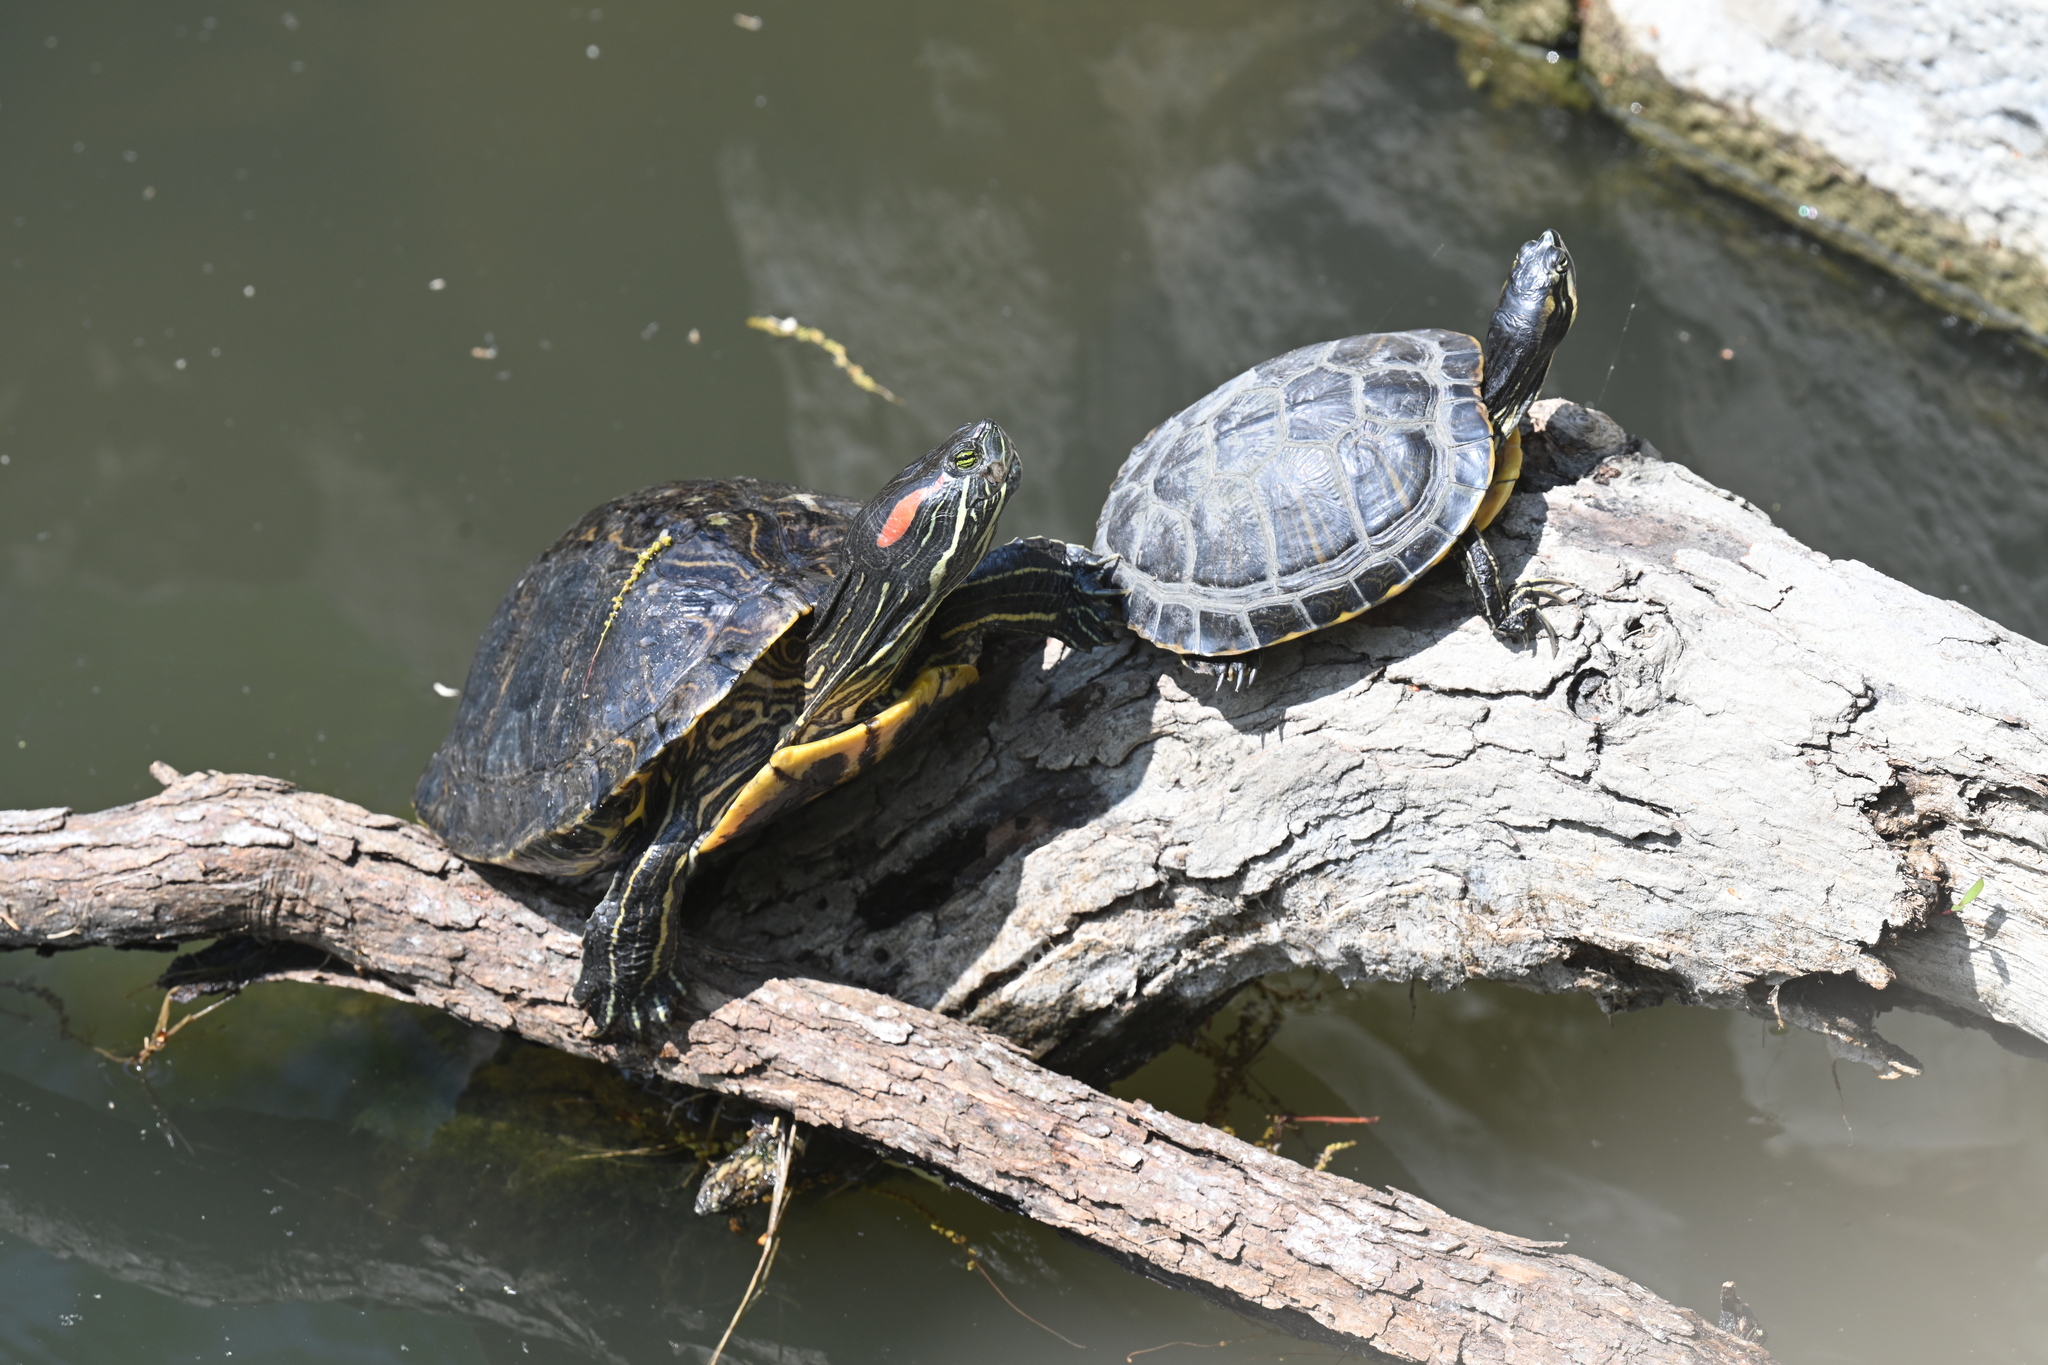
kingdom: Animalia
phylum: Chordata
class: Testudines
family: Emydidae
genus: Trachemys
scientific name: Trachemys scripta
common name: Slider
